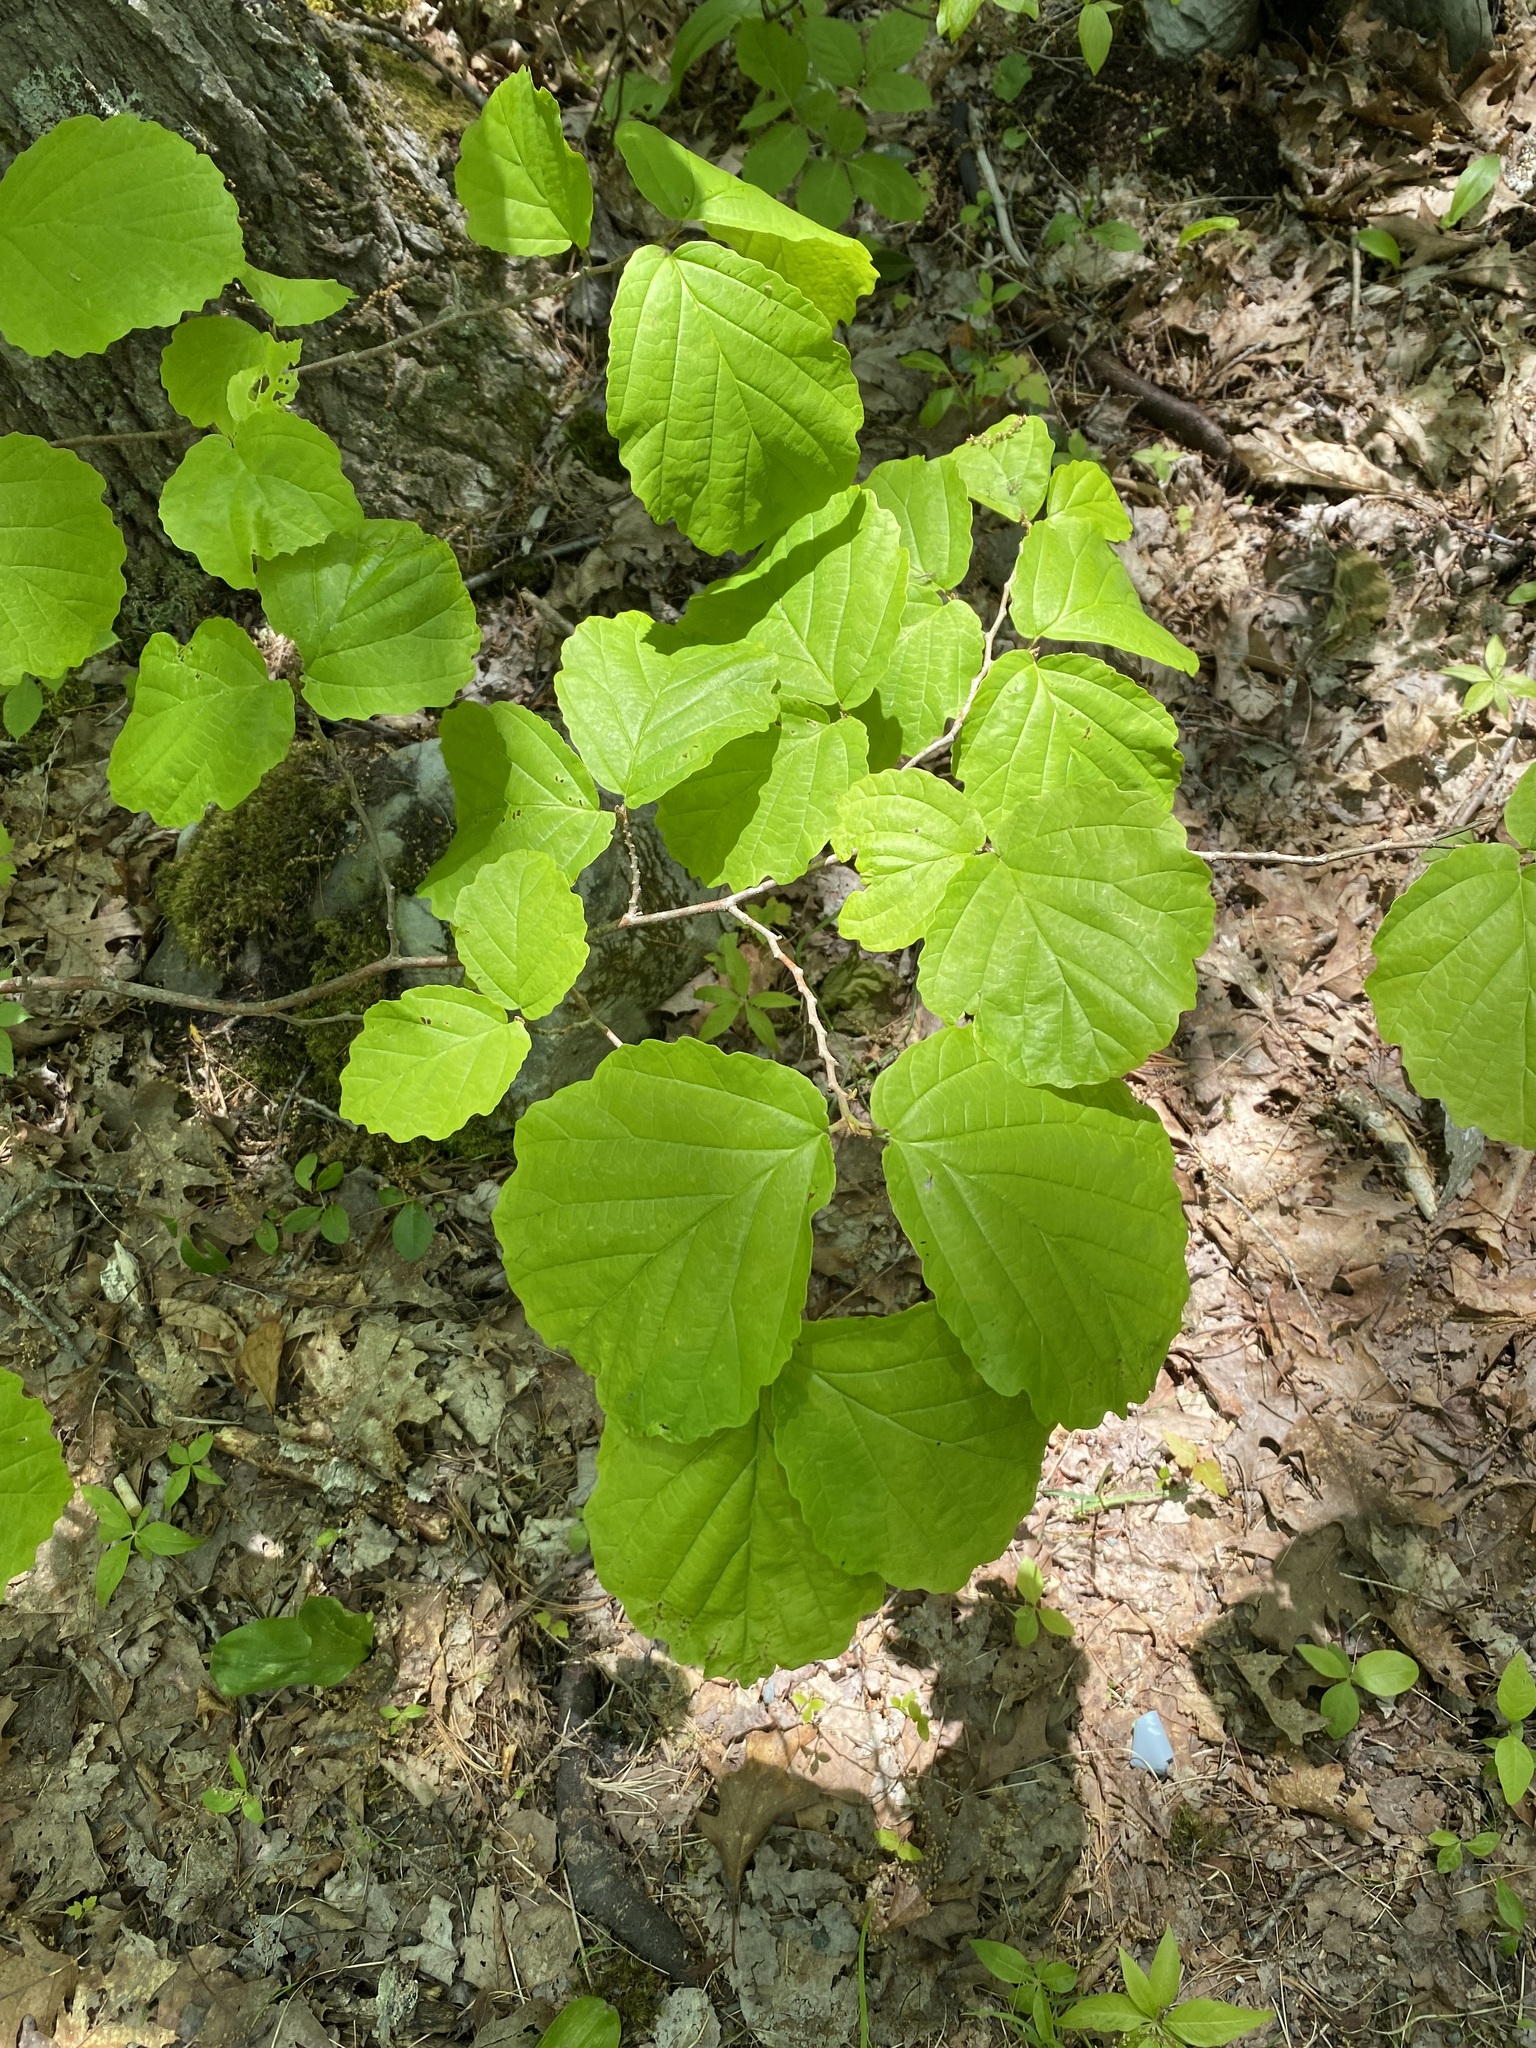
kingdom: Plantae
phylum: Tracheophyta
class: Magnoliopsida
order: Saxifragales
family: Hamamelidaceae
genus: Hamamelis
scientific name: Hamamelis virginiana
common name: Witch-hazel
